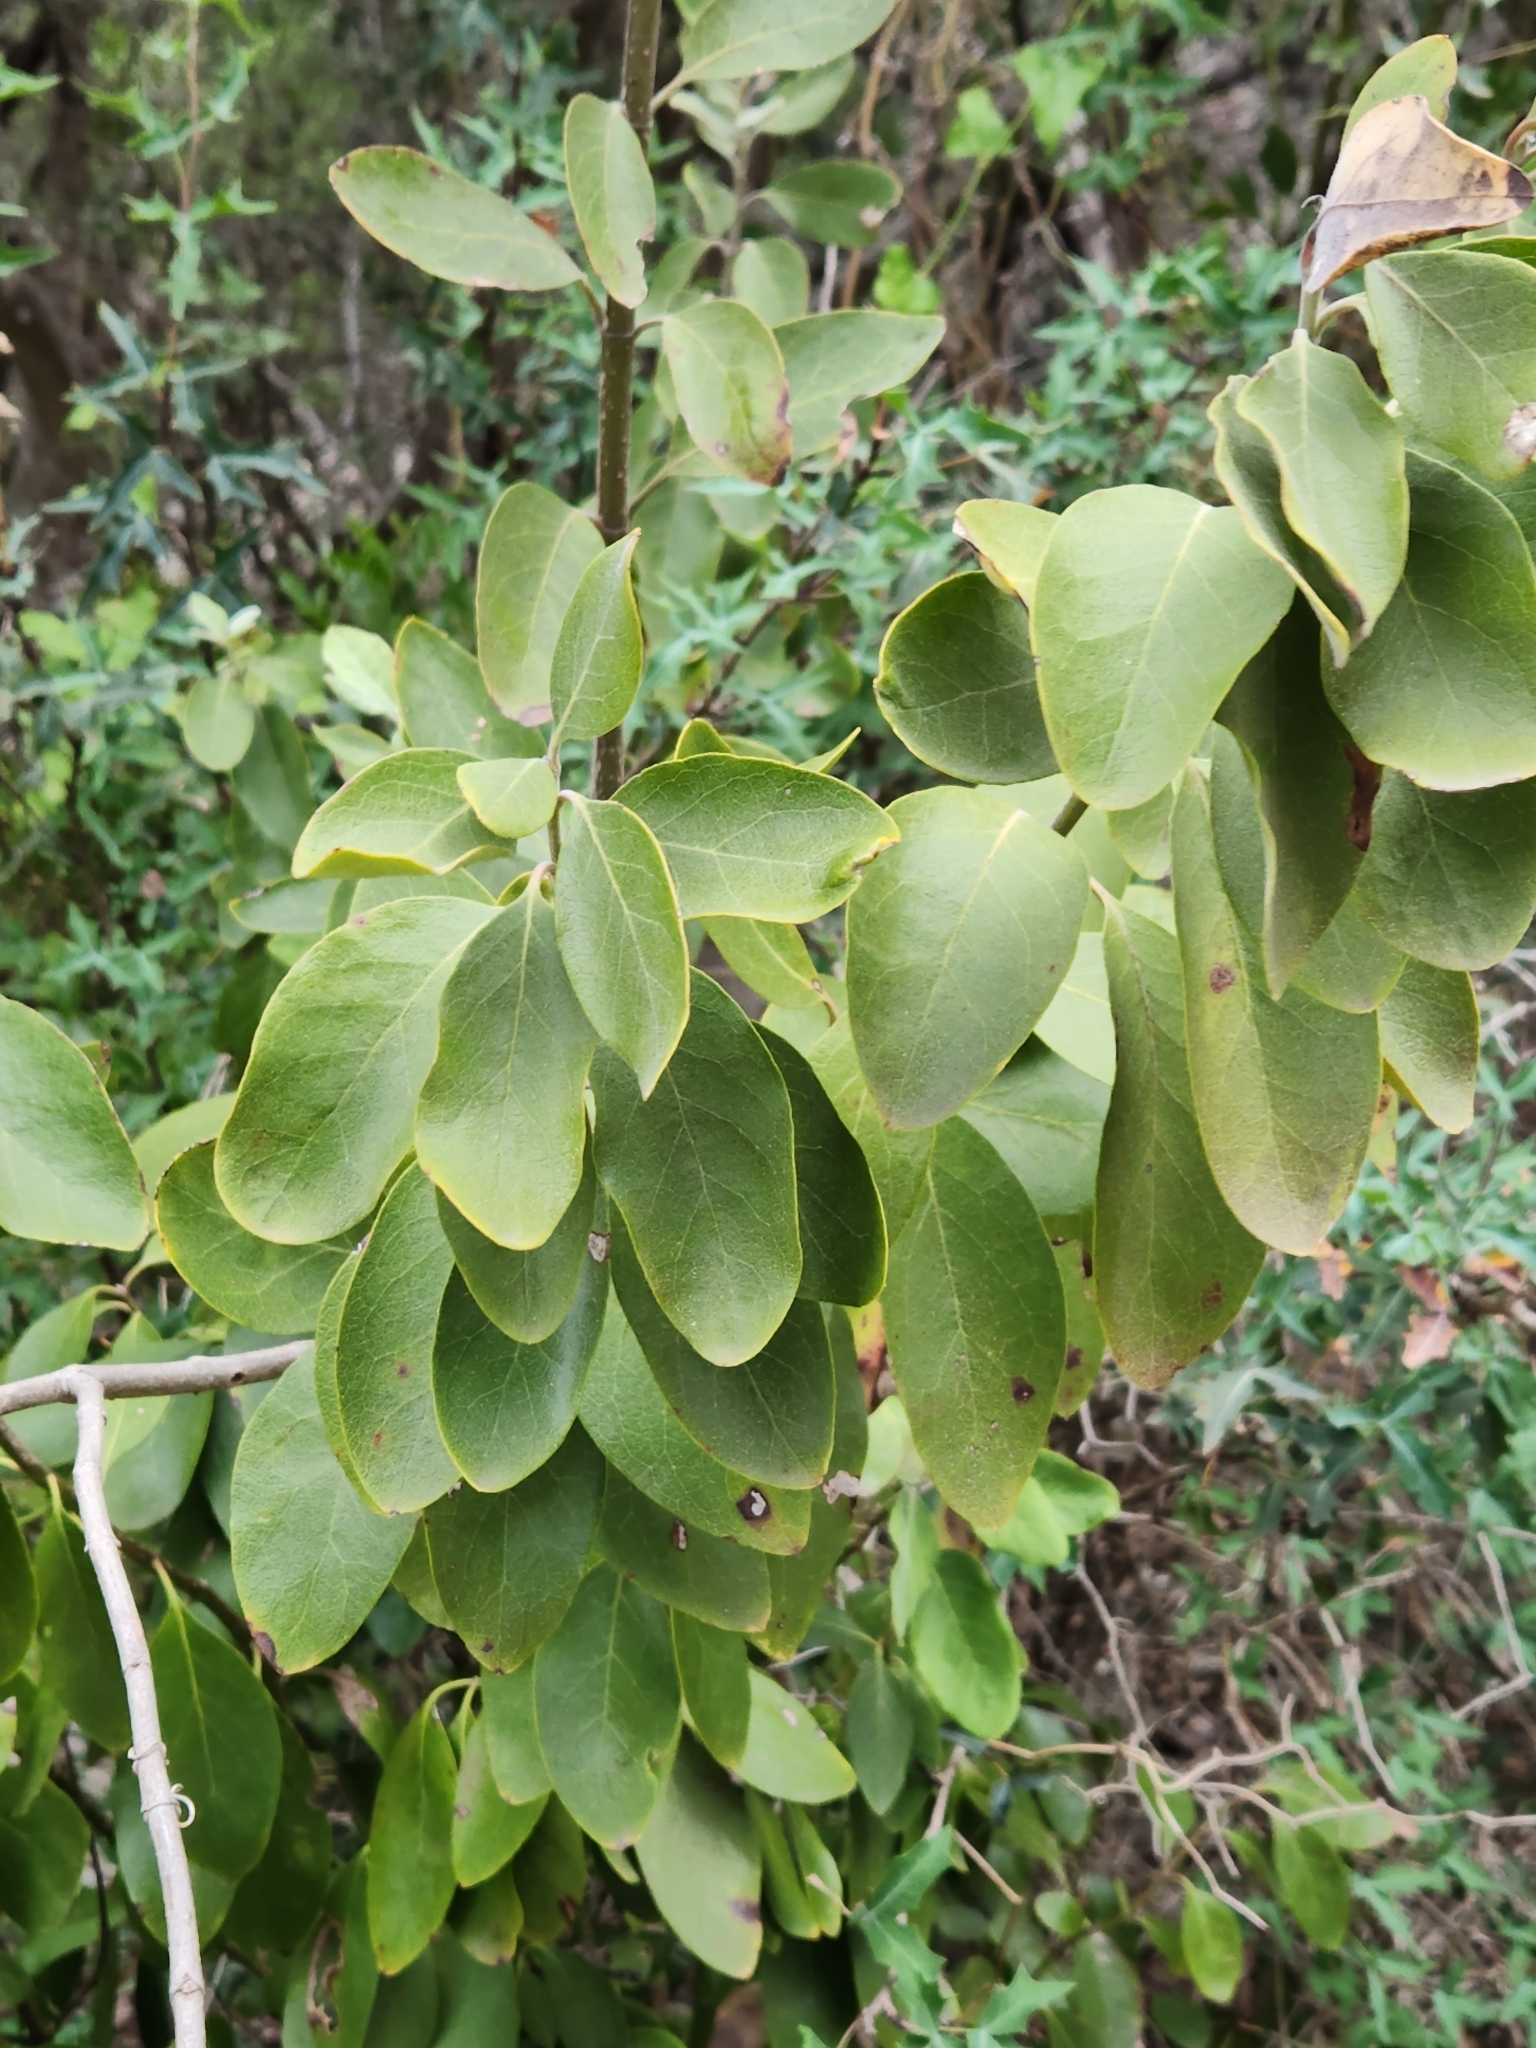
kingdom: Plantae
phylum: Tracheophyta
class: Magnoliopsida
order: Garryales
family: Garryaceae
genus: Garrya
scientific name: Garrya lindheimeri
